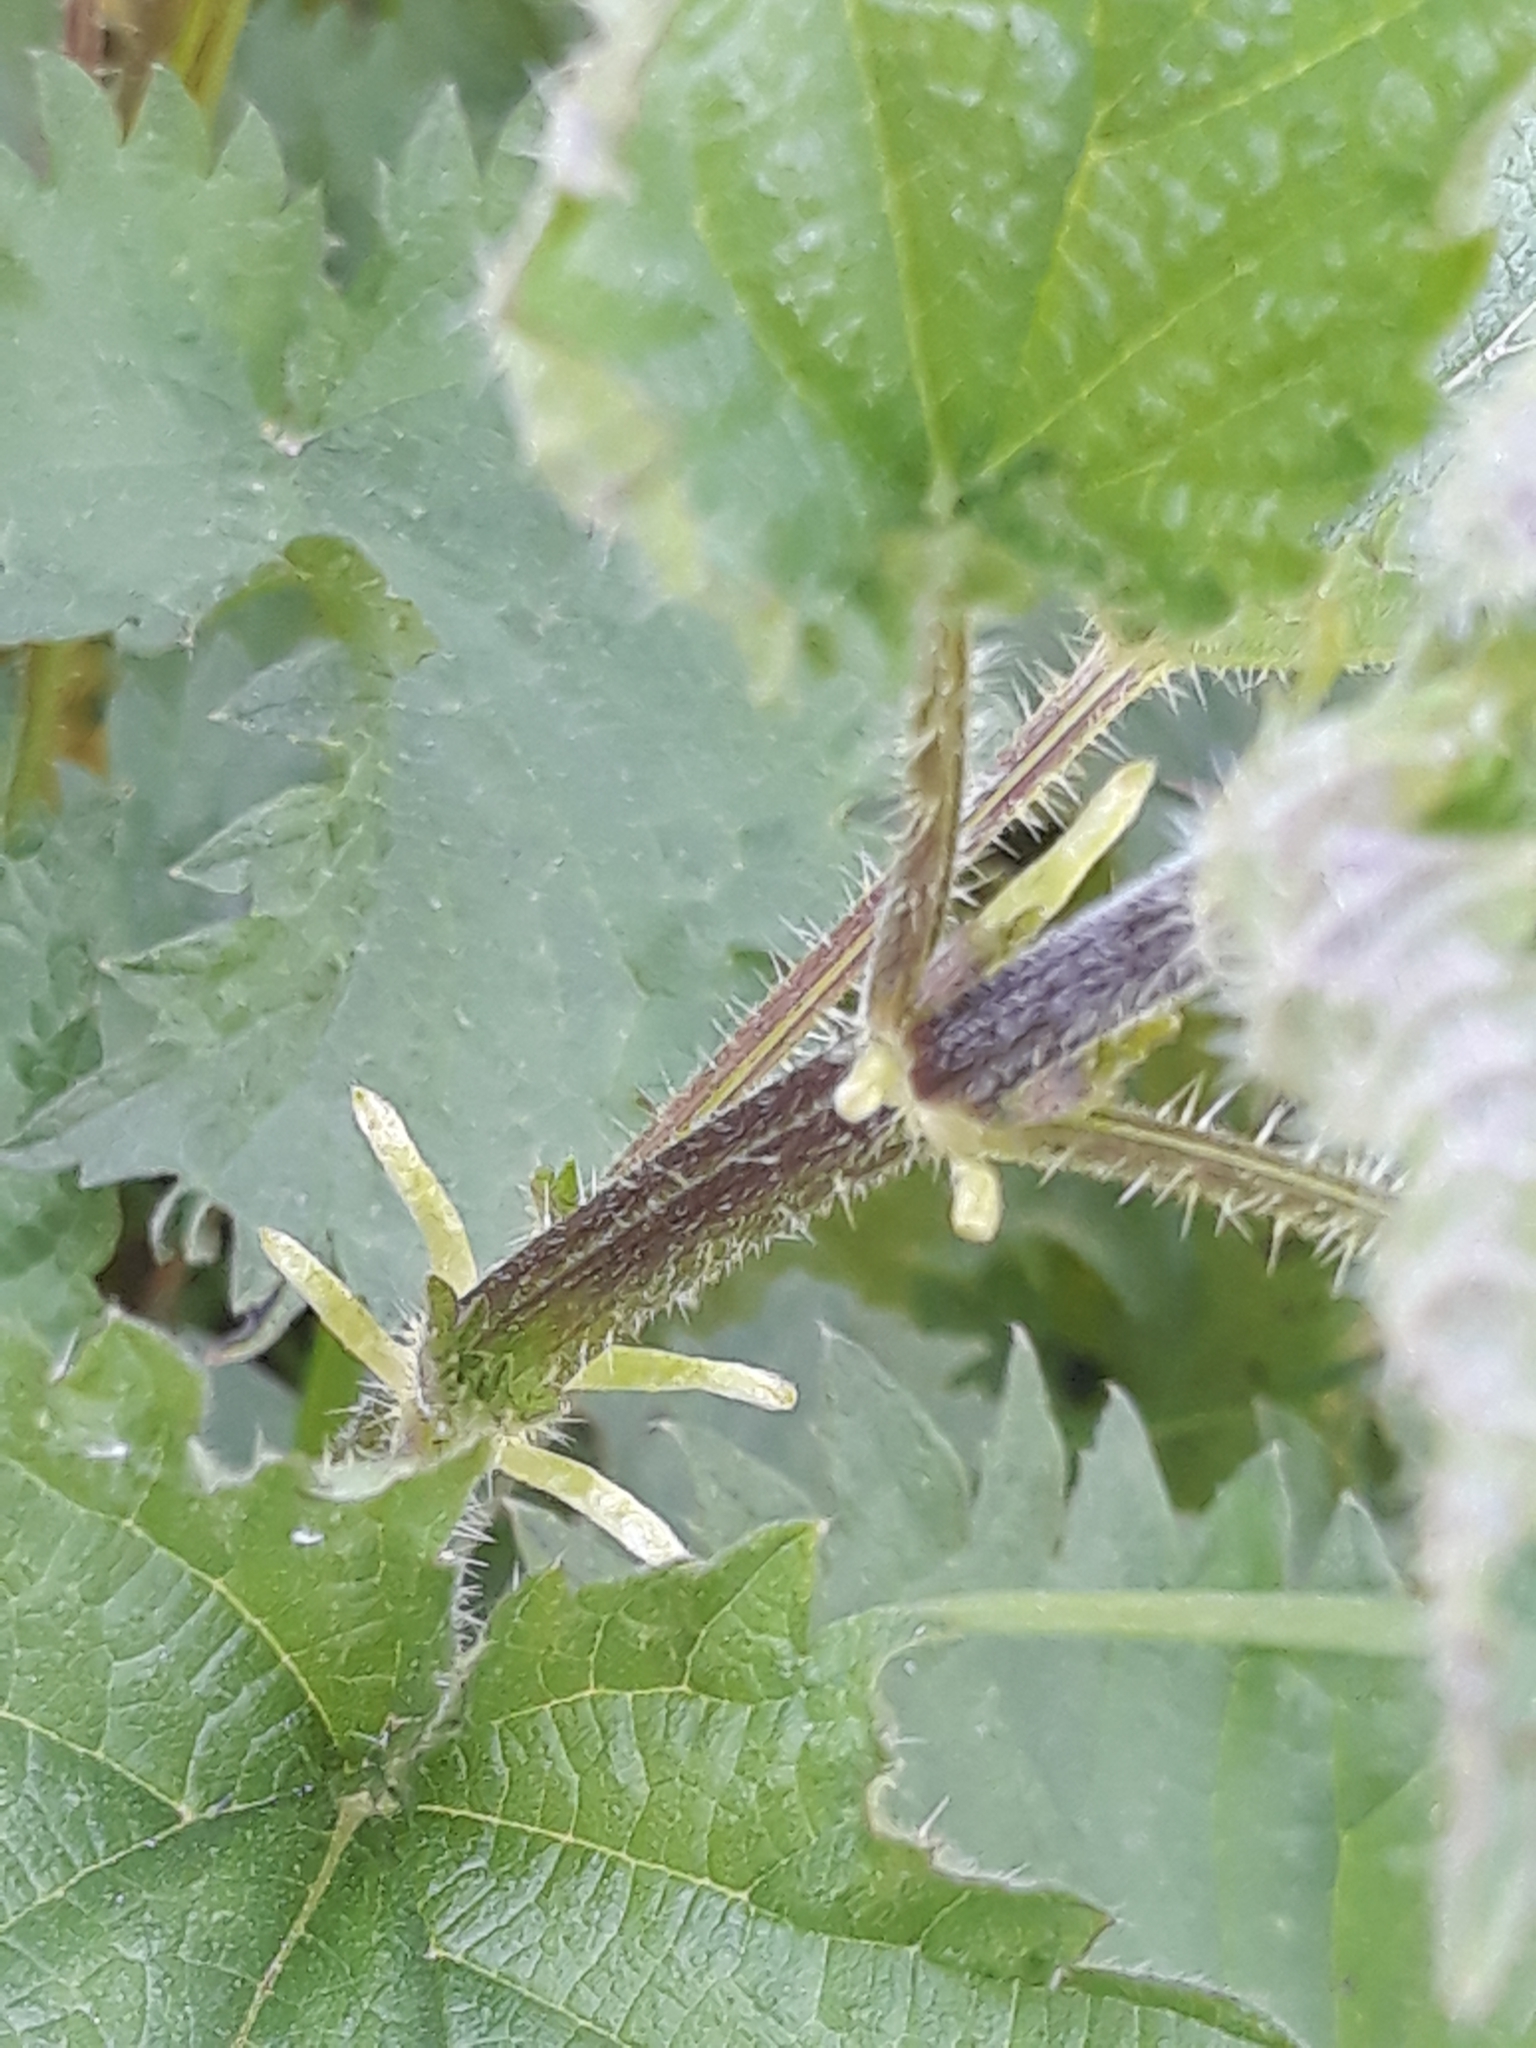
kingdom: Plantae
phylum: Tracheophyta
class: Magnoliopsida
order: Rosales
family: Urticaceae
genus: Urtica
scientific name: Urtica dioica
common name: Common nettle
